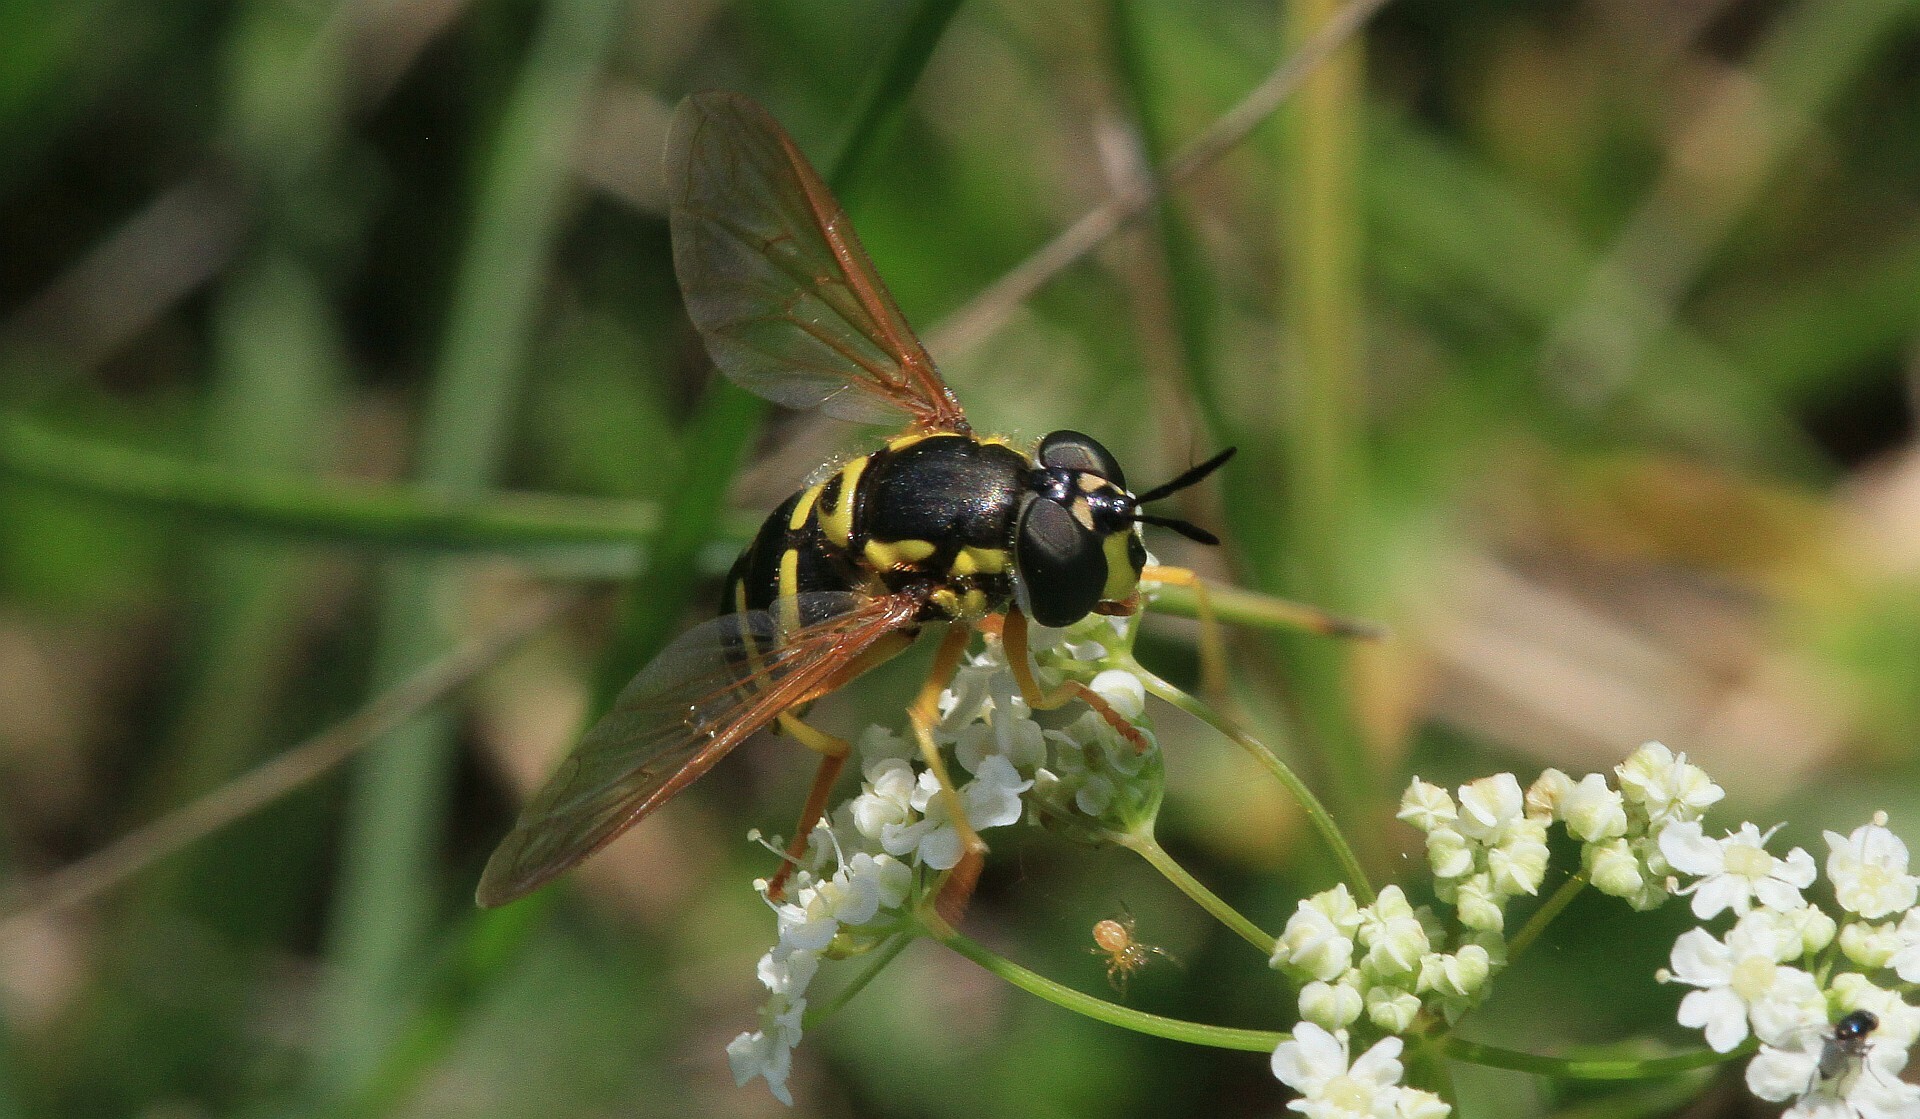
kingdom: Animalia
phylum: Arthropoda
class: Insecta
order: Diptera
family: Syrphidae
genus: Chrysotoxum
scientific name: Chrysotoxum festivum
